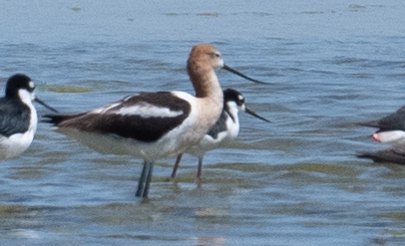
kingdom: Animalia
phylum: Chordata
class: Aves
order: Charadriiformes
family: Recurvirostridae
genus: Recurvirostra
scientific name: Recurvirostra americana
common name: American avocet
